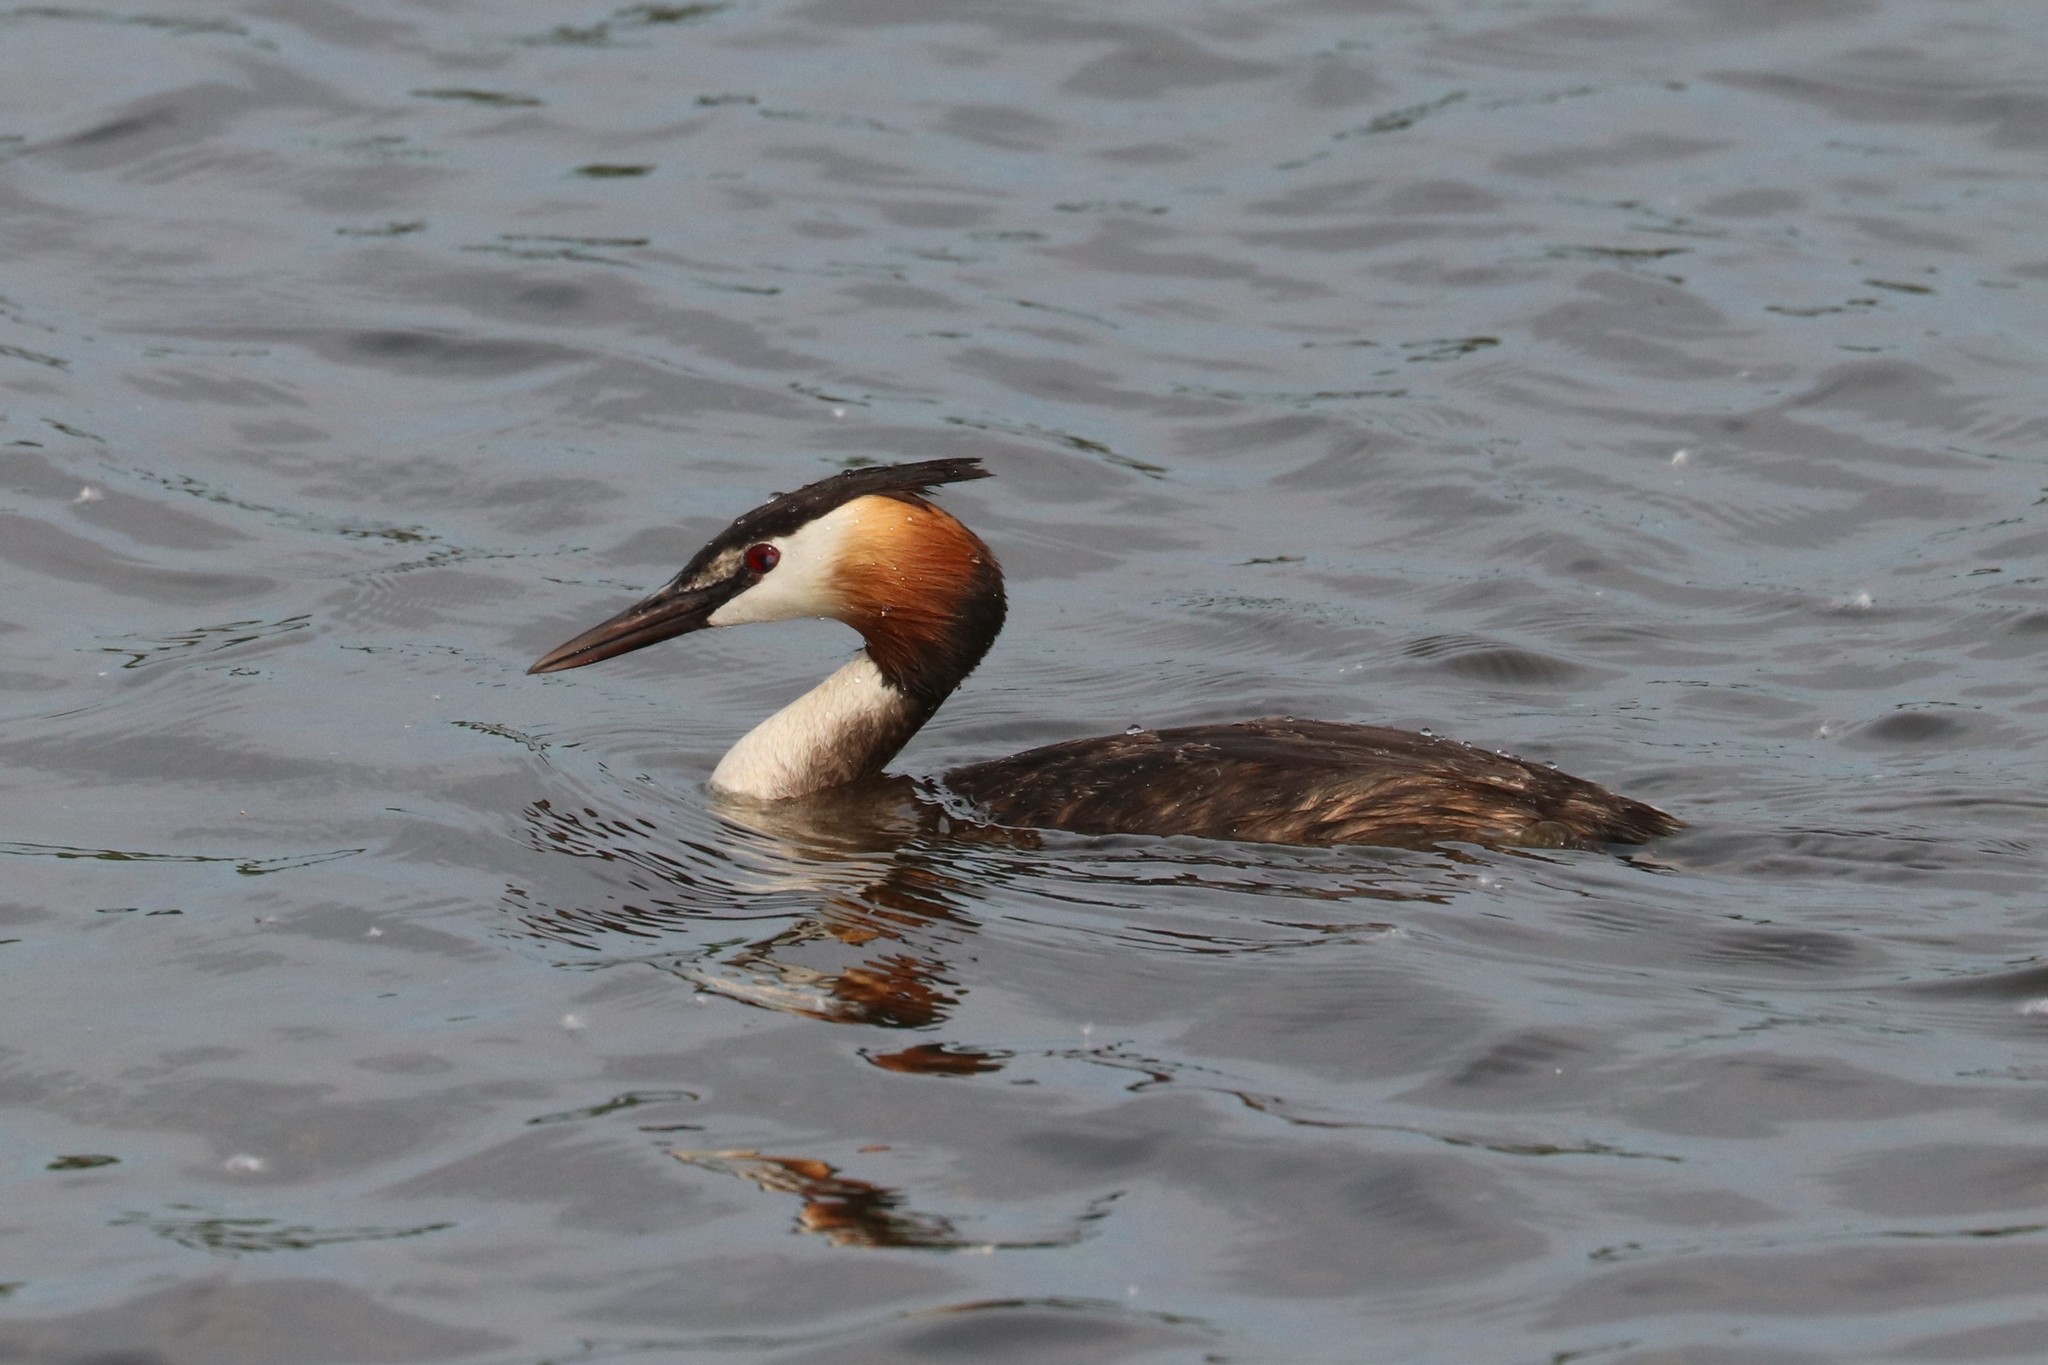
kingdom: Animalia
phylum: Chordata
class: Aves
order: Podicipediformes
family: Podicipedidae
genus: Podiceps
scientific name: Podiceps cristatus
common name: Great crested grebe
